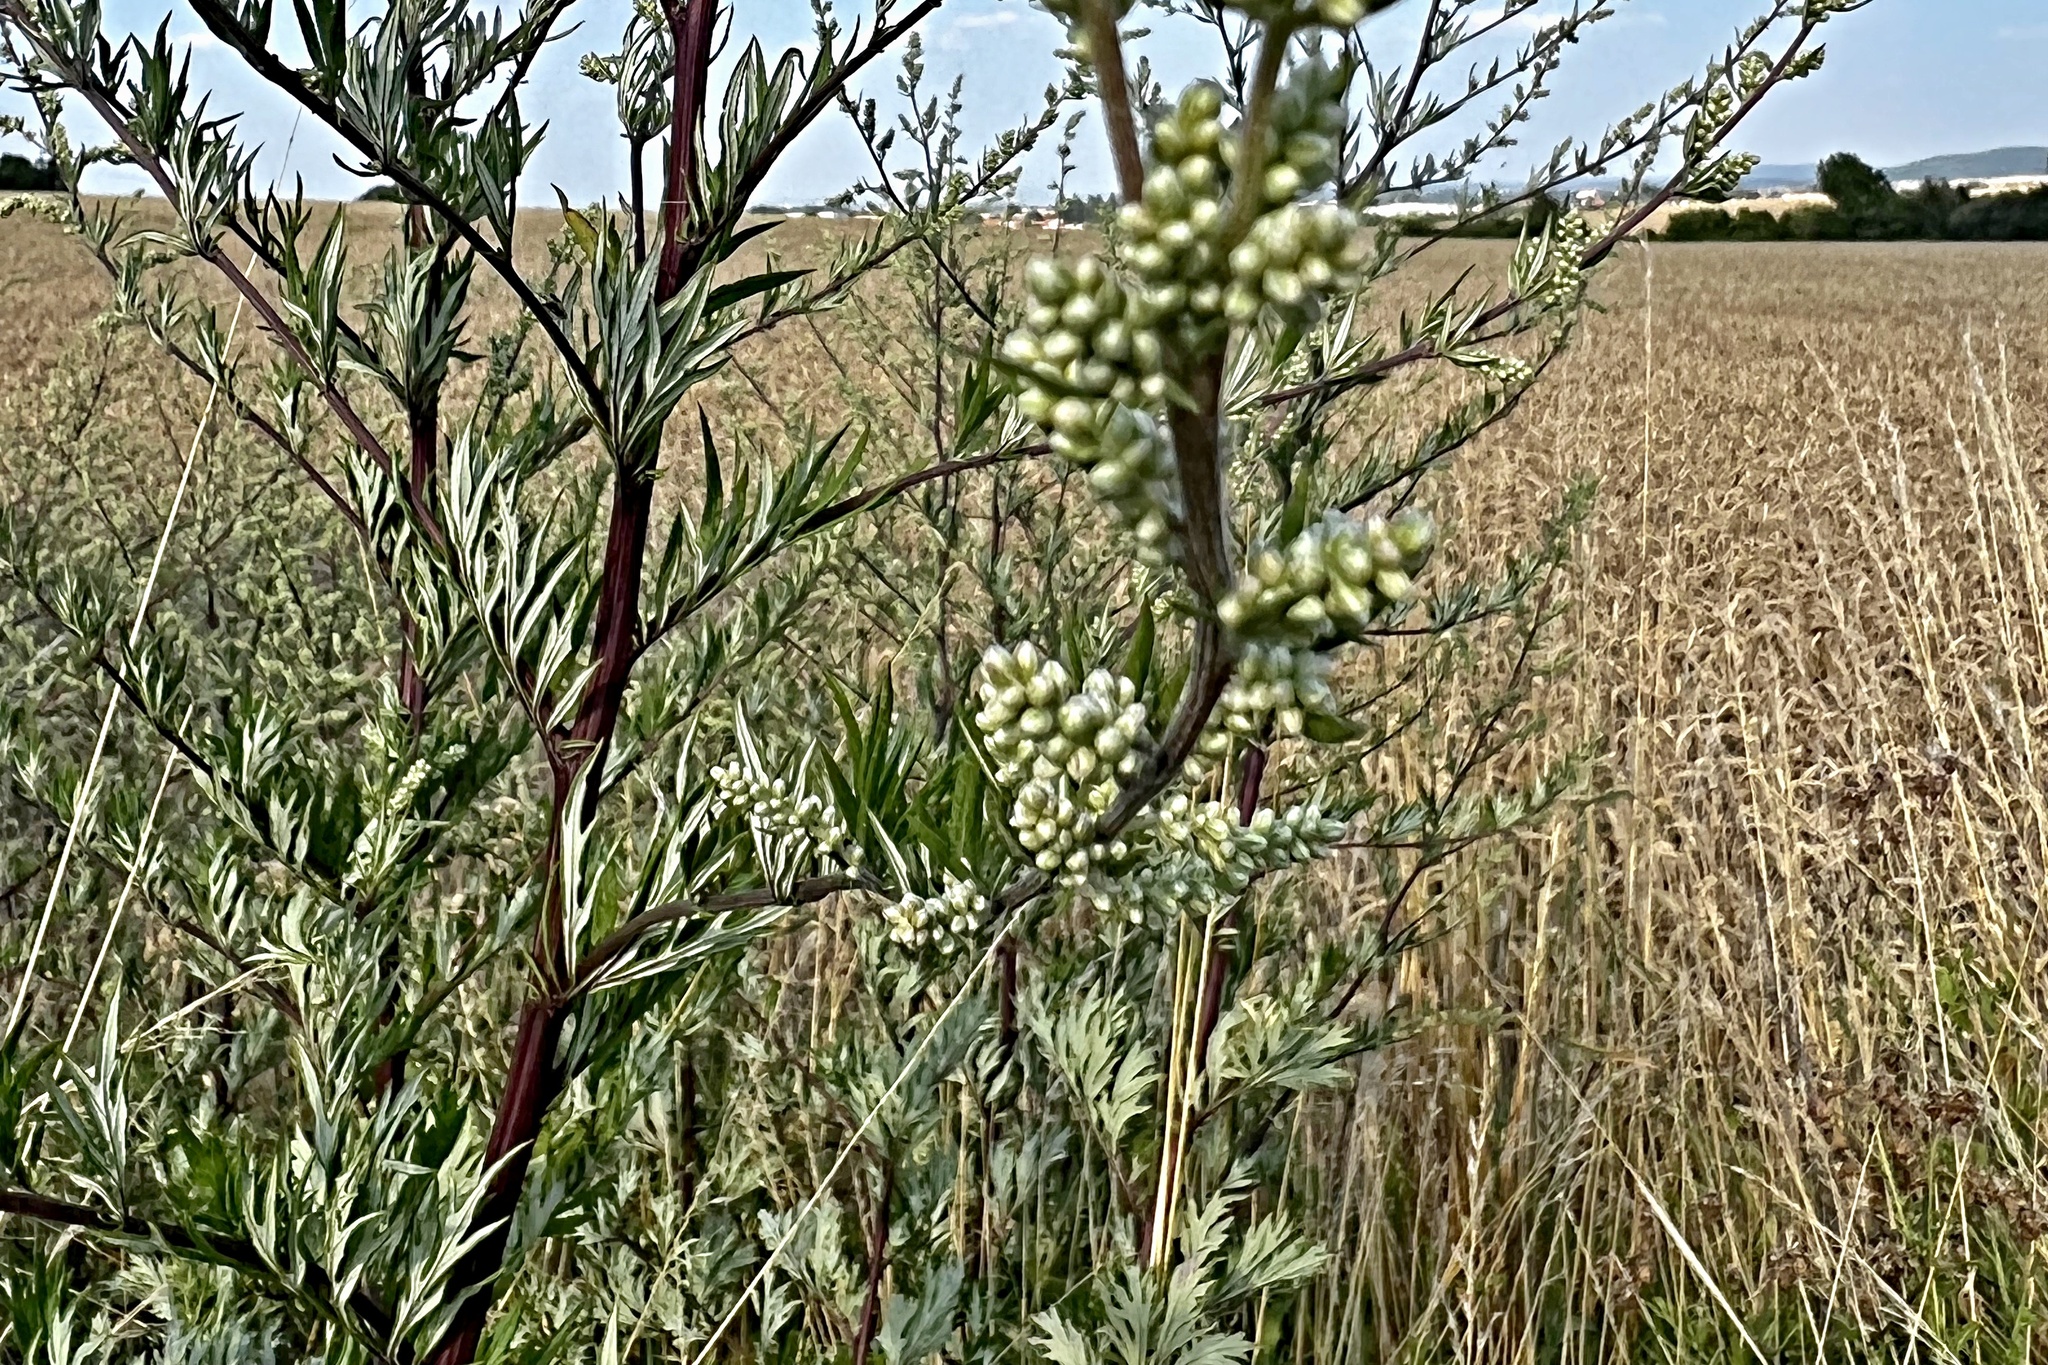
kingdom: Plantae
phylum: Tracheophyta
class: Magnoliopsida
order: Asterales
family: Asteraceae
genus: Artemisia
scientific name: Artemisia vulgaris
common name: Mugwort
